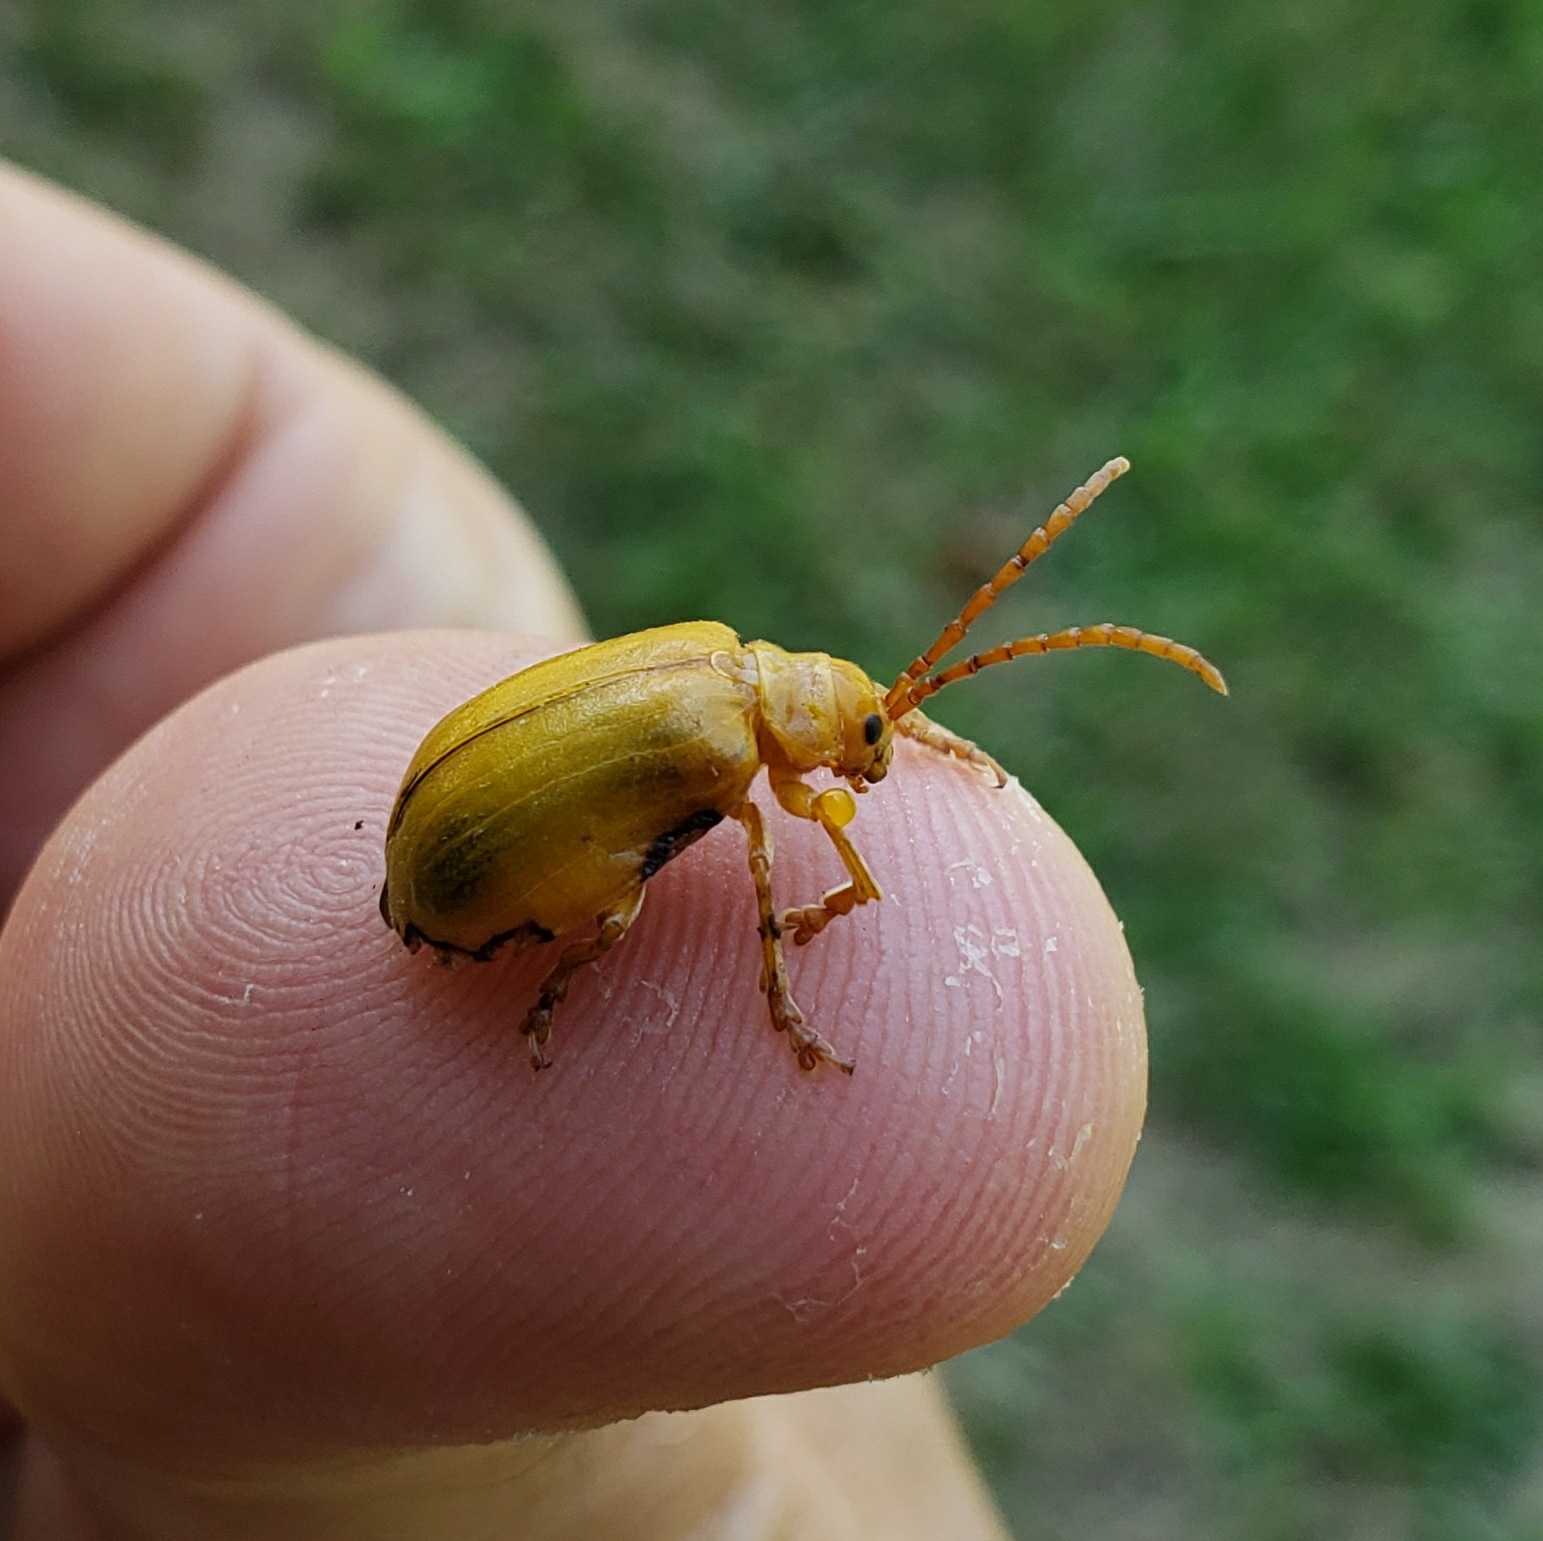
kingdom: Animalia
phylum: Arthropoda
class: Insecta
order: Coleoptera
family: Chrysomelidae
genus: Monocesta
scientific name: Monocesta coryli
